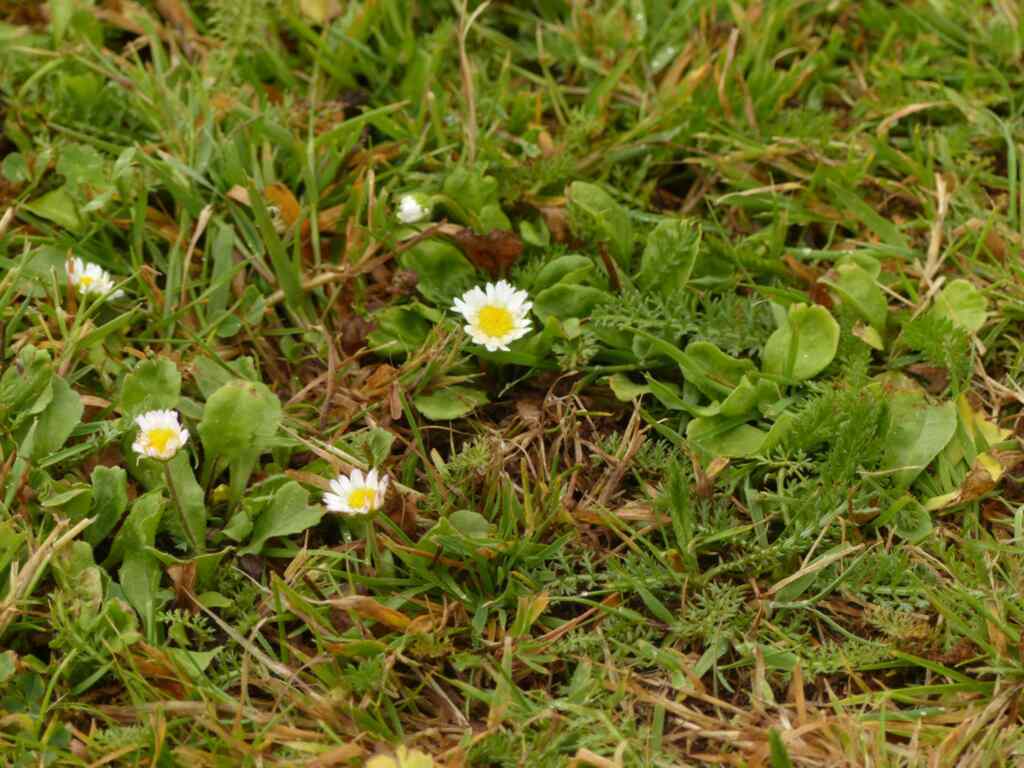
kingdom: Plantae
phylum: Tracheophyta
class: Magnoliopsida
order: Asterales
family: Asteraceae
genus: Bellis
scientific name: Bellis perennis
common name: Lawndaisy
